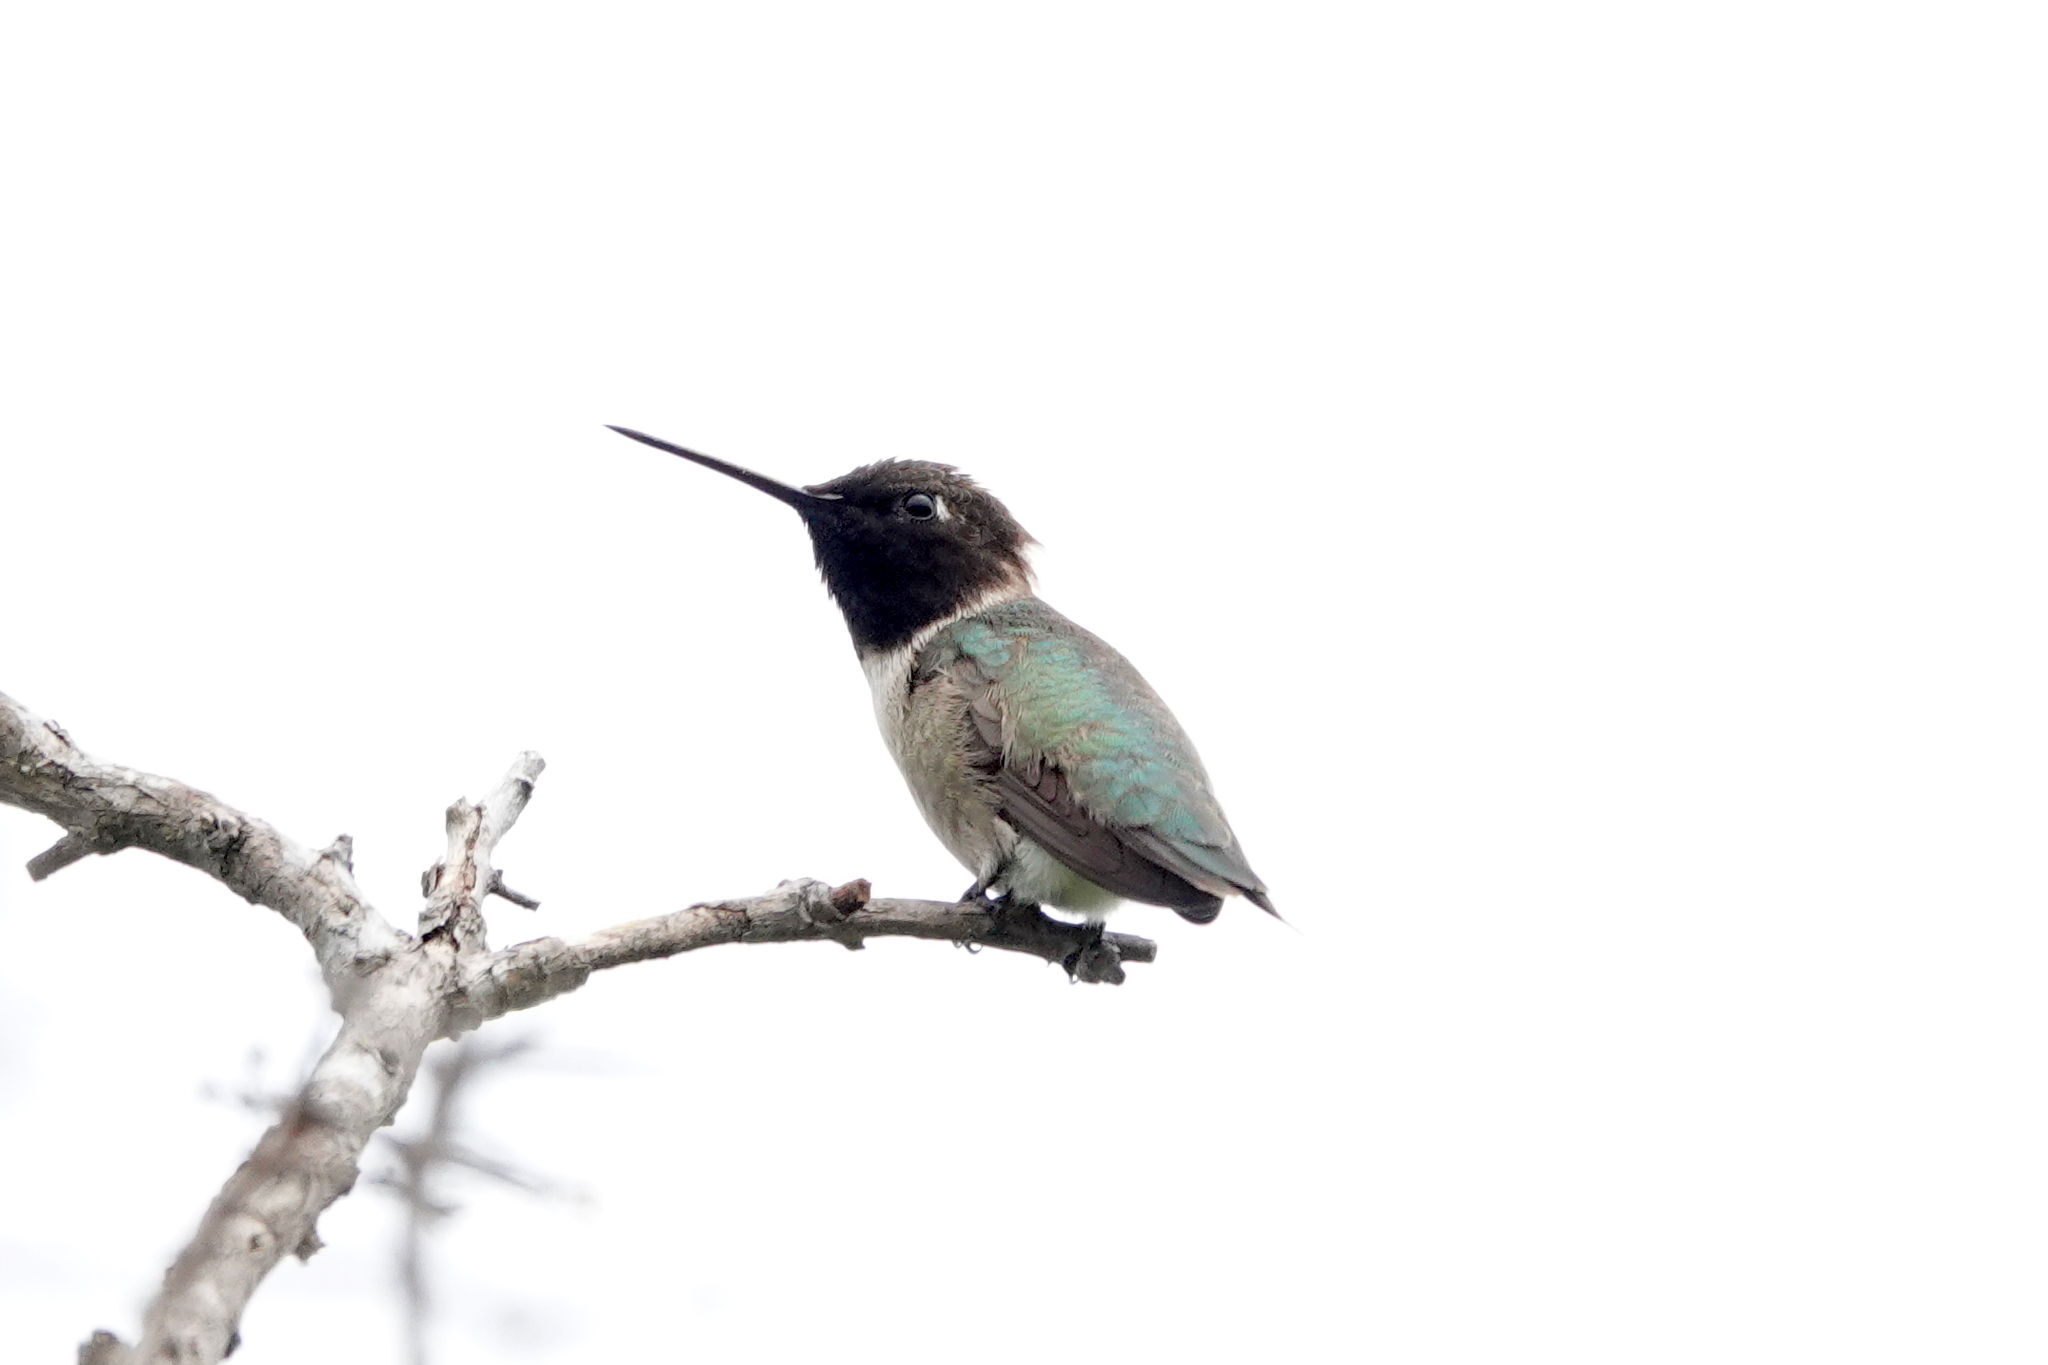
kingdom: Animalia
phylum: Chordata
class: Aves
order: Apodiformes
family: Trochilidae
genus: Archilochus
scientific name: Archilochus alexandri
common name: Black-chinned hummingbird
